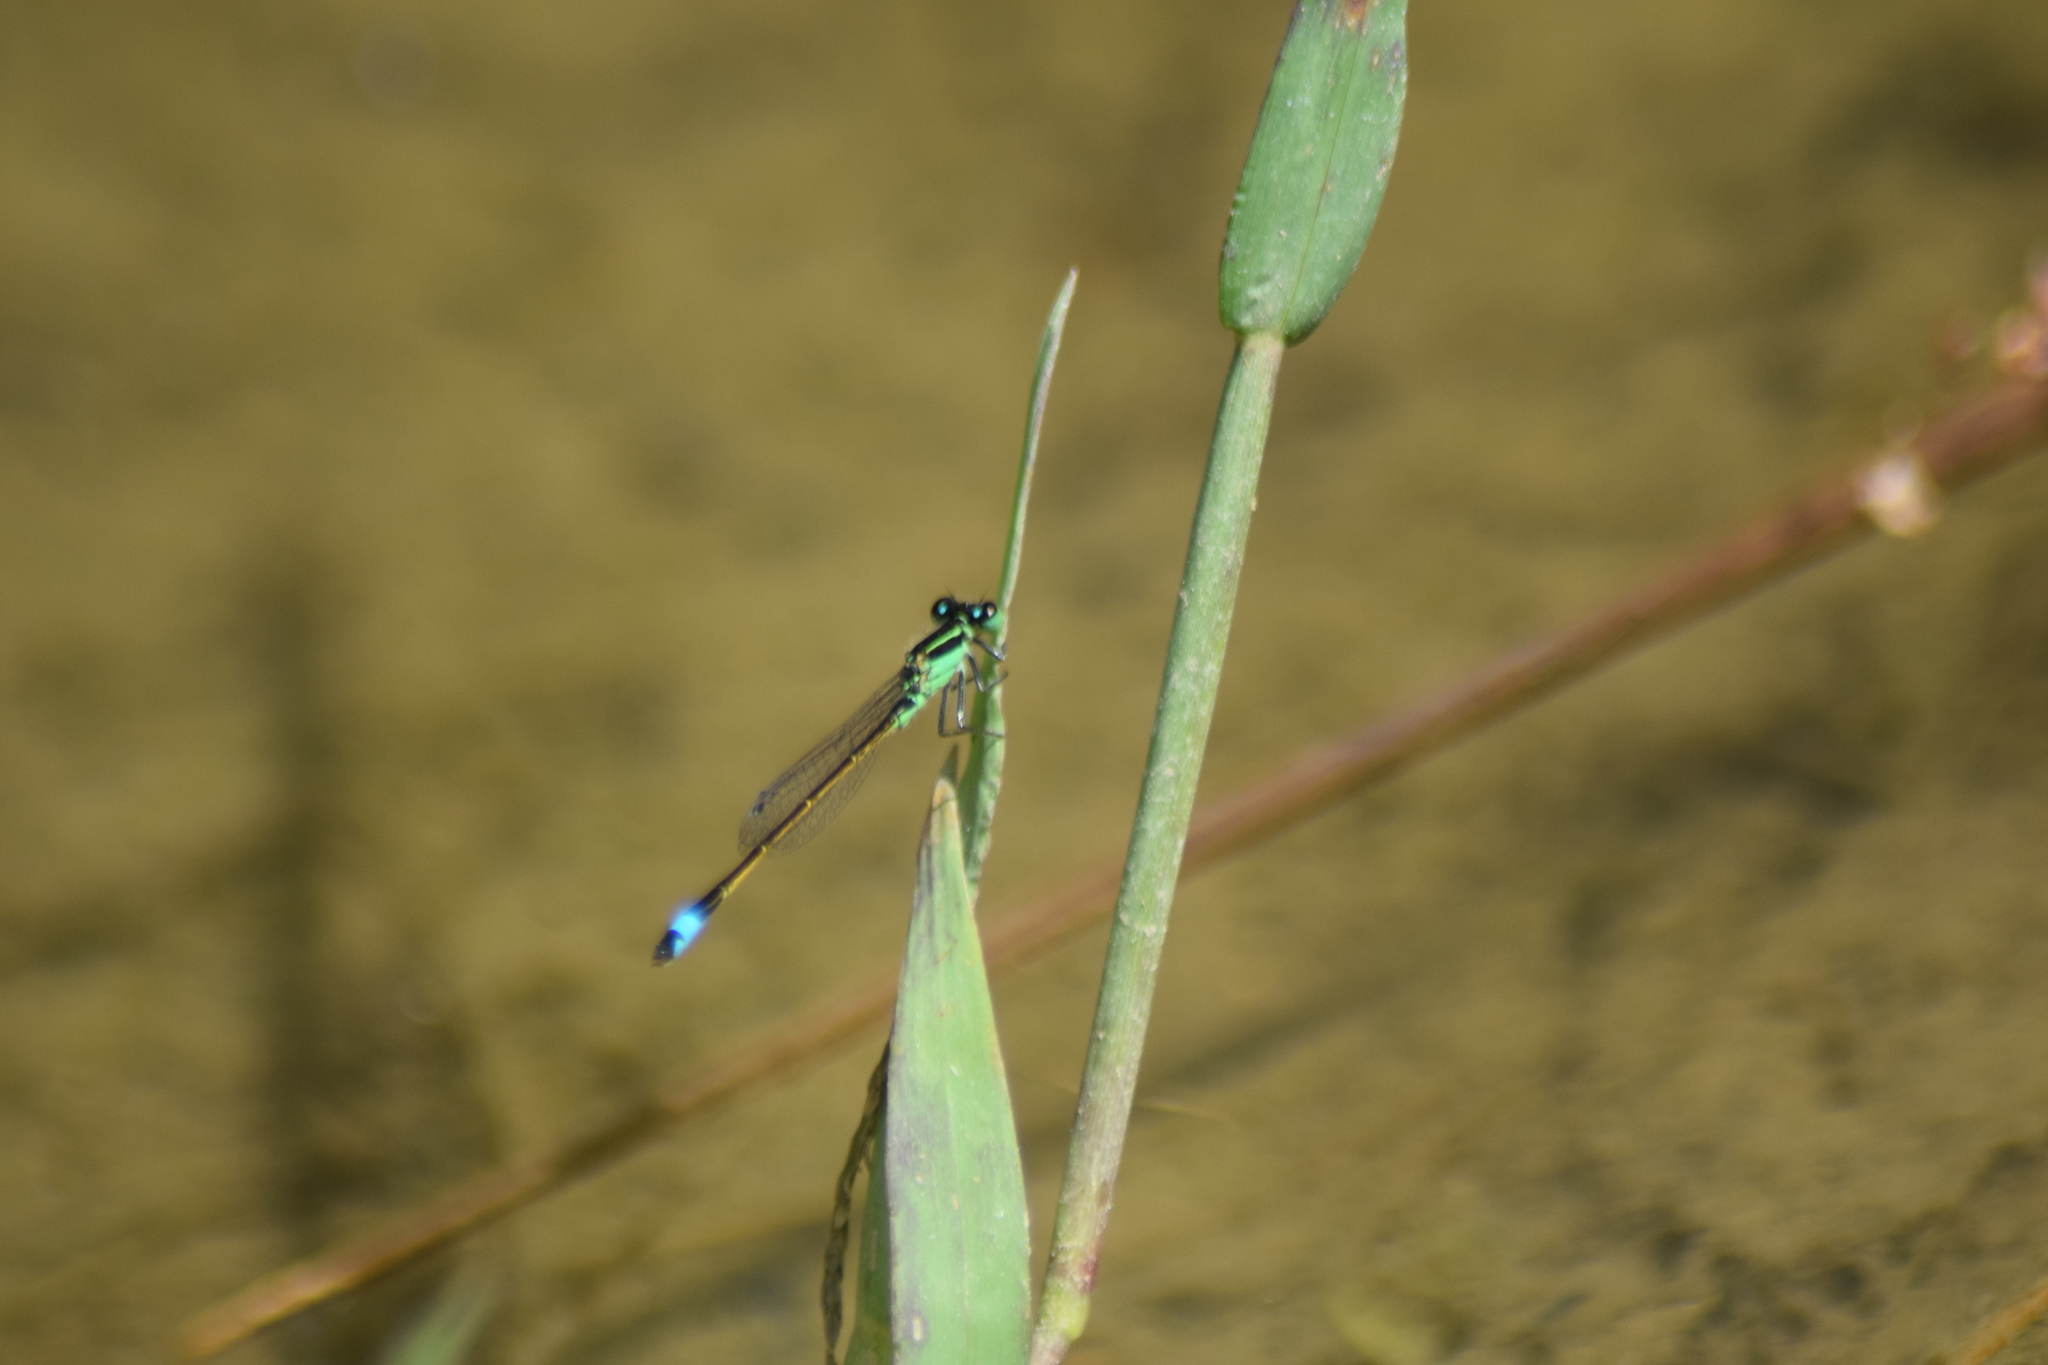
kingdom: Animalia
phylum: Arthropoda
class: Insecta
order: Odonata
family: Coenagrionidae
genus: Ischnura
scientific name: Ischnura ramburii
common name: Rambur's forktail
